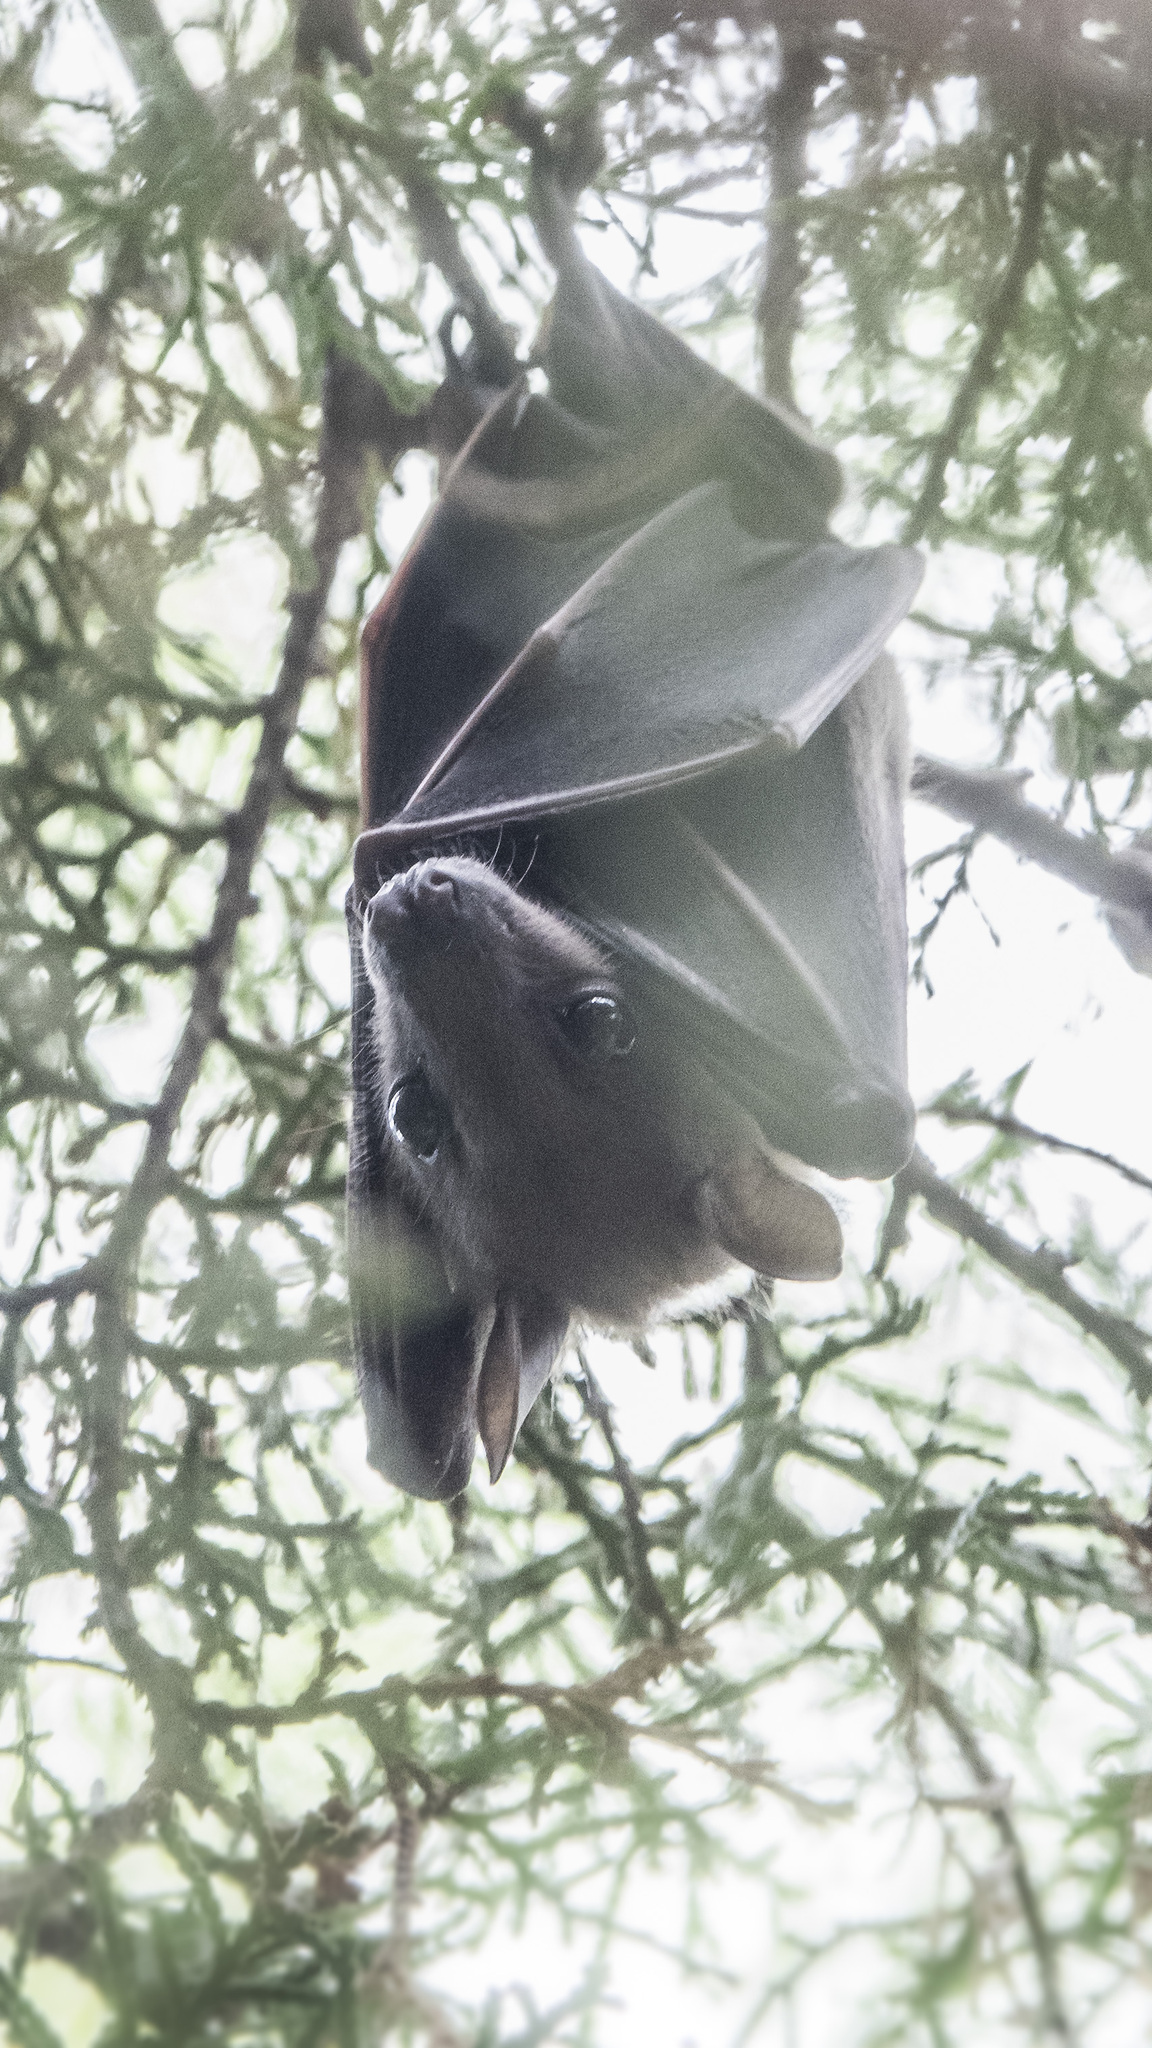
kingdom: Animalia
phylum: Chordata
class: Mammalia
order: Chiroptera
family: Pteropodidae
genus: Cynopterus
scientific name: Cynopterus
